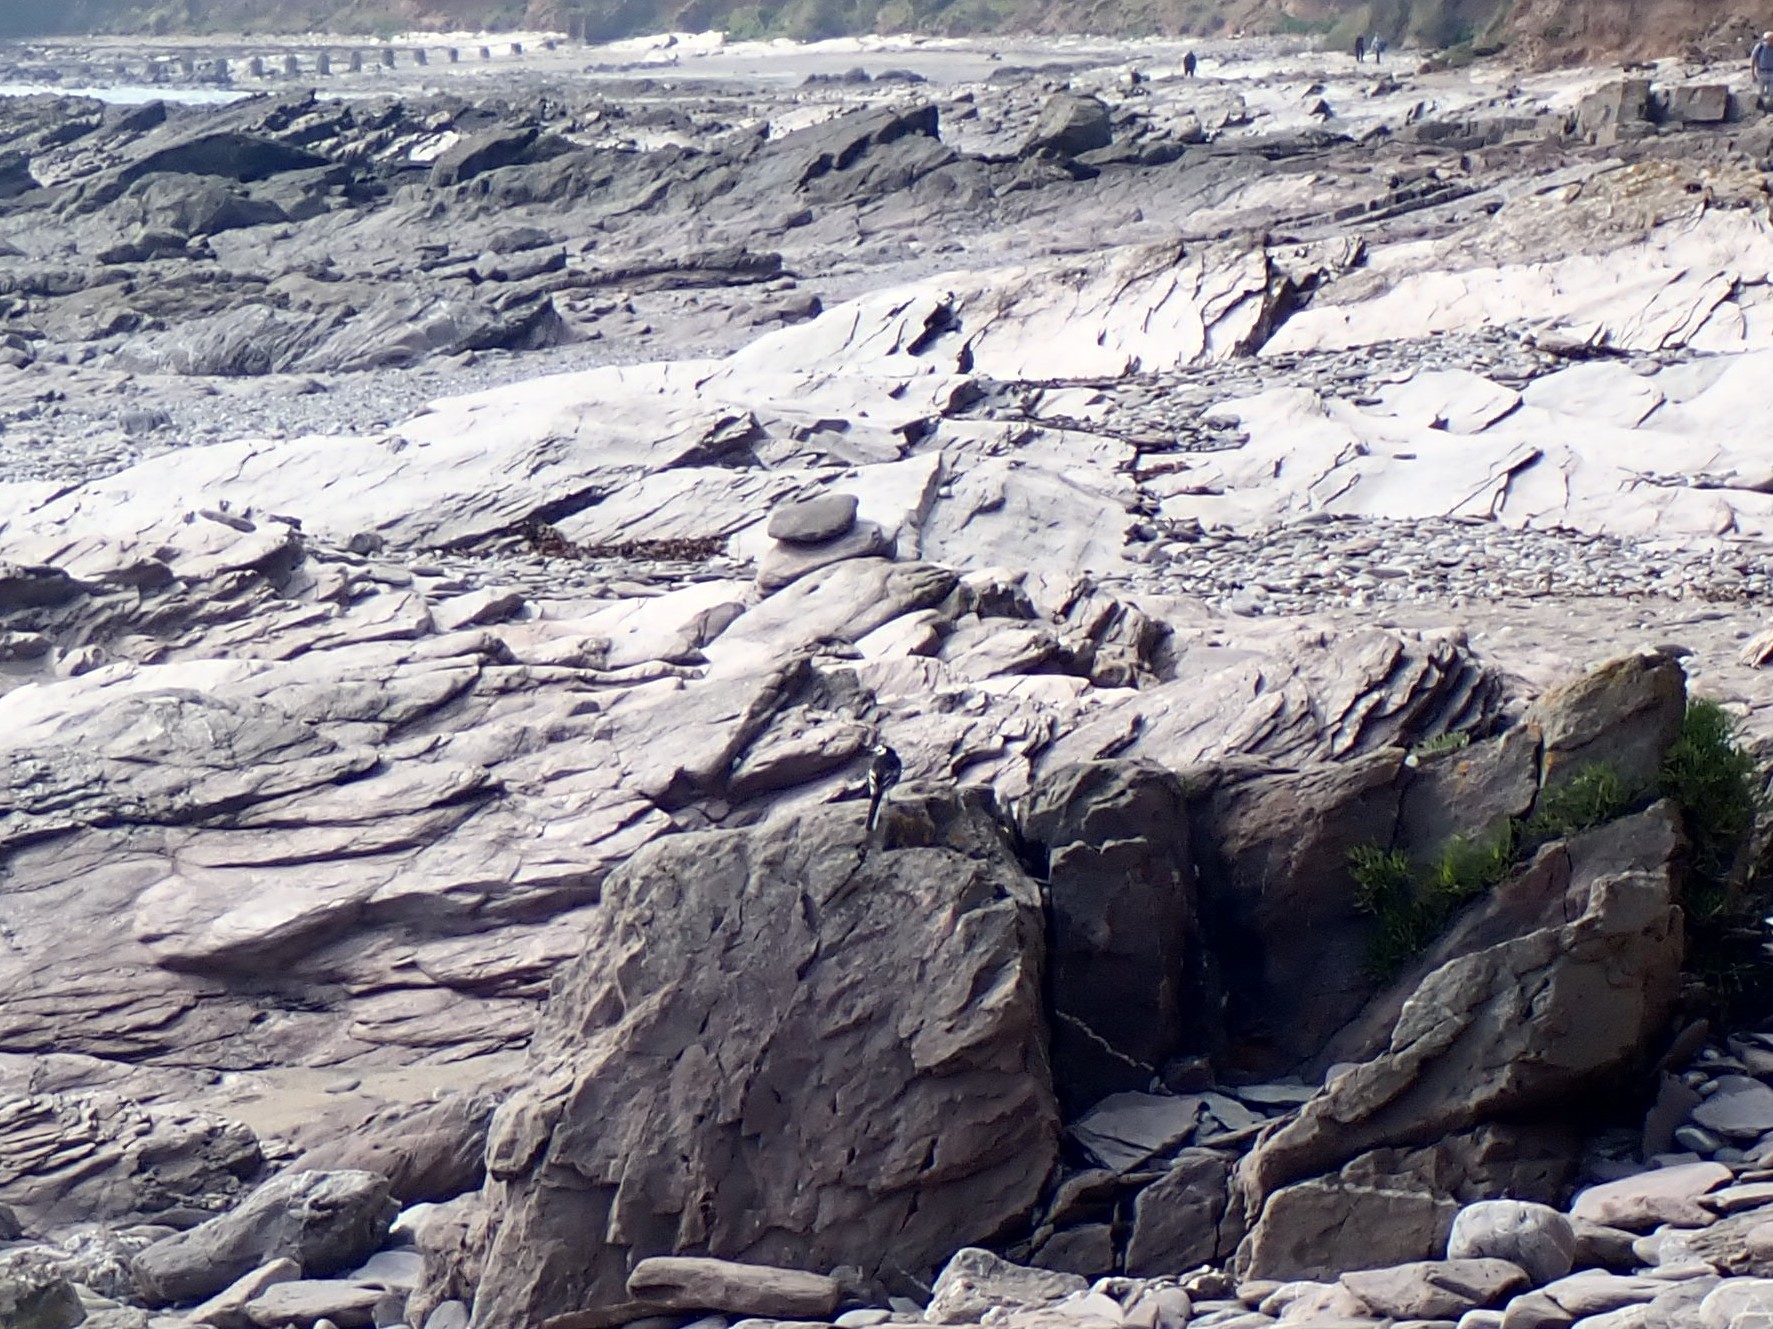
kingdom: Animalia
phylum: Chordata
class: Aves
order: Passeriformes
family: Motacillidae
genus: Motacilla
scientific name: Motacilla alba
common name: White wagtail
